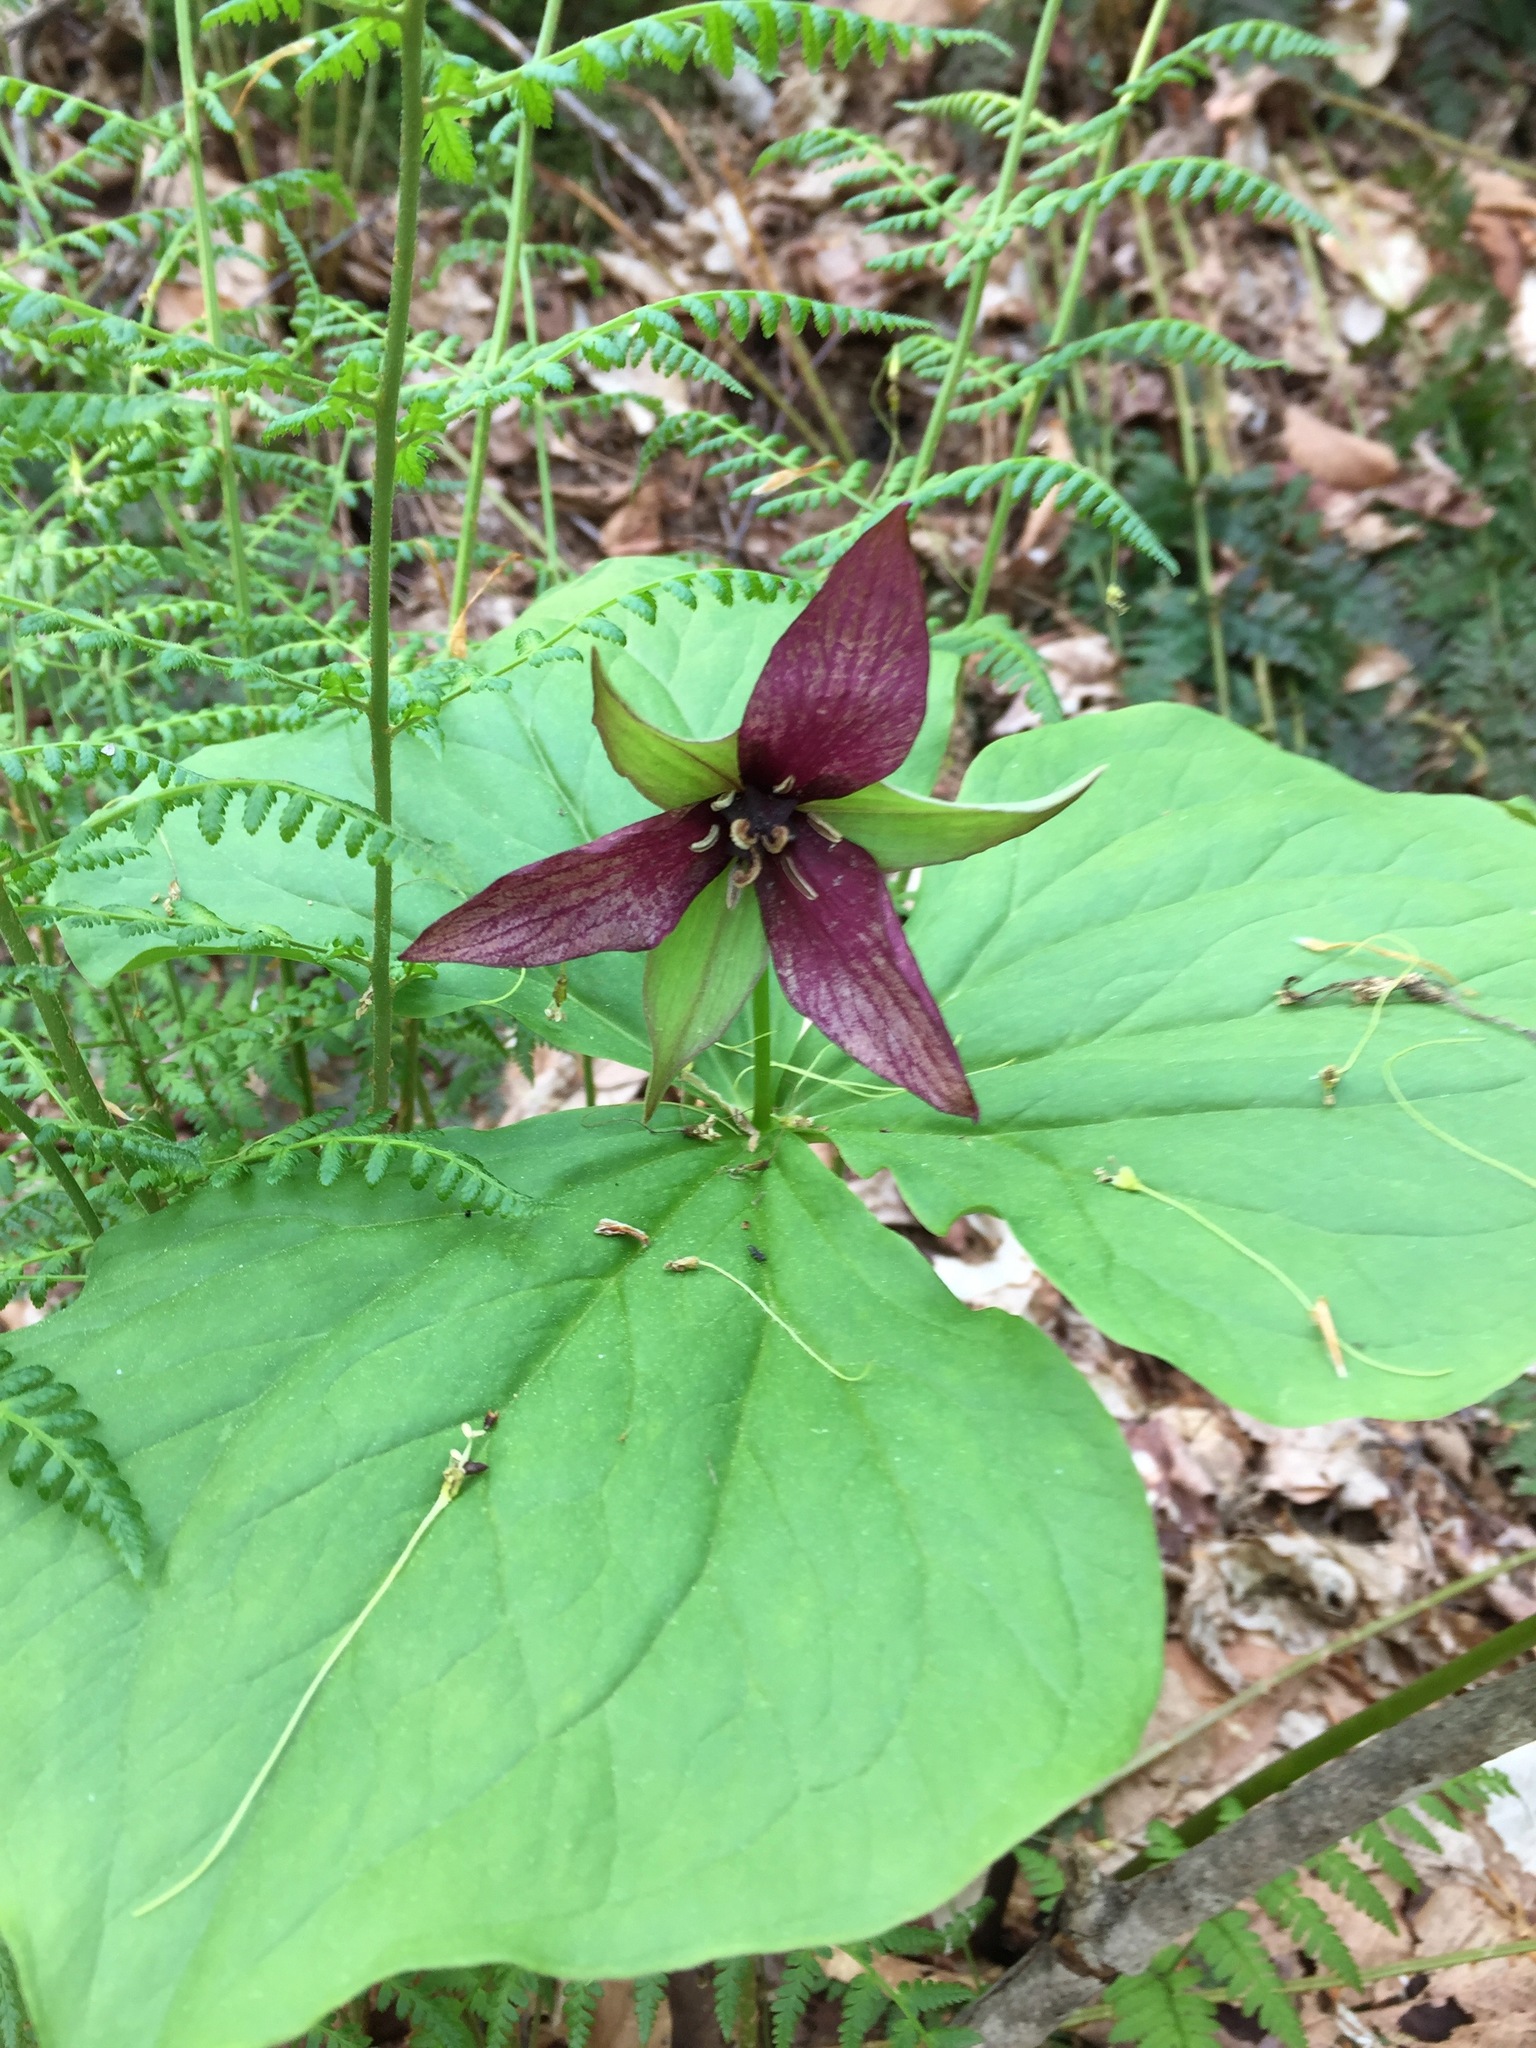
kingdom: Plantae
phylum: Tracheophyta
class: Liliopsida
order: Liliales
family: Melanthiaceae
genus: Trillium
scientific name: Trillium erectum
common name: Purple trillium
